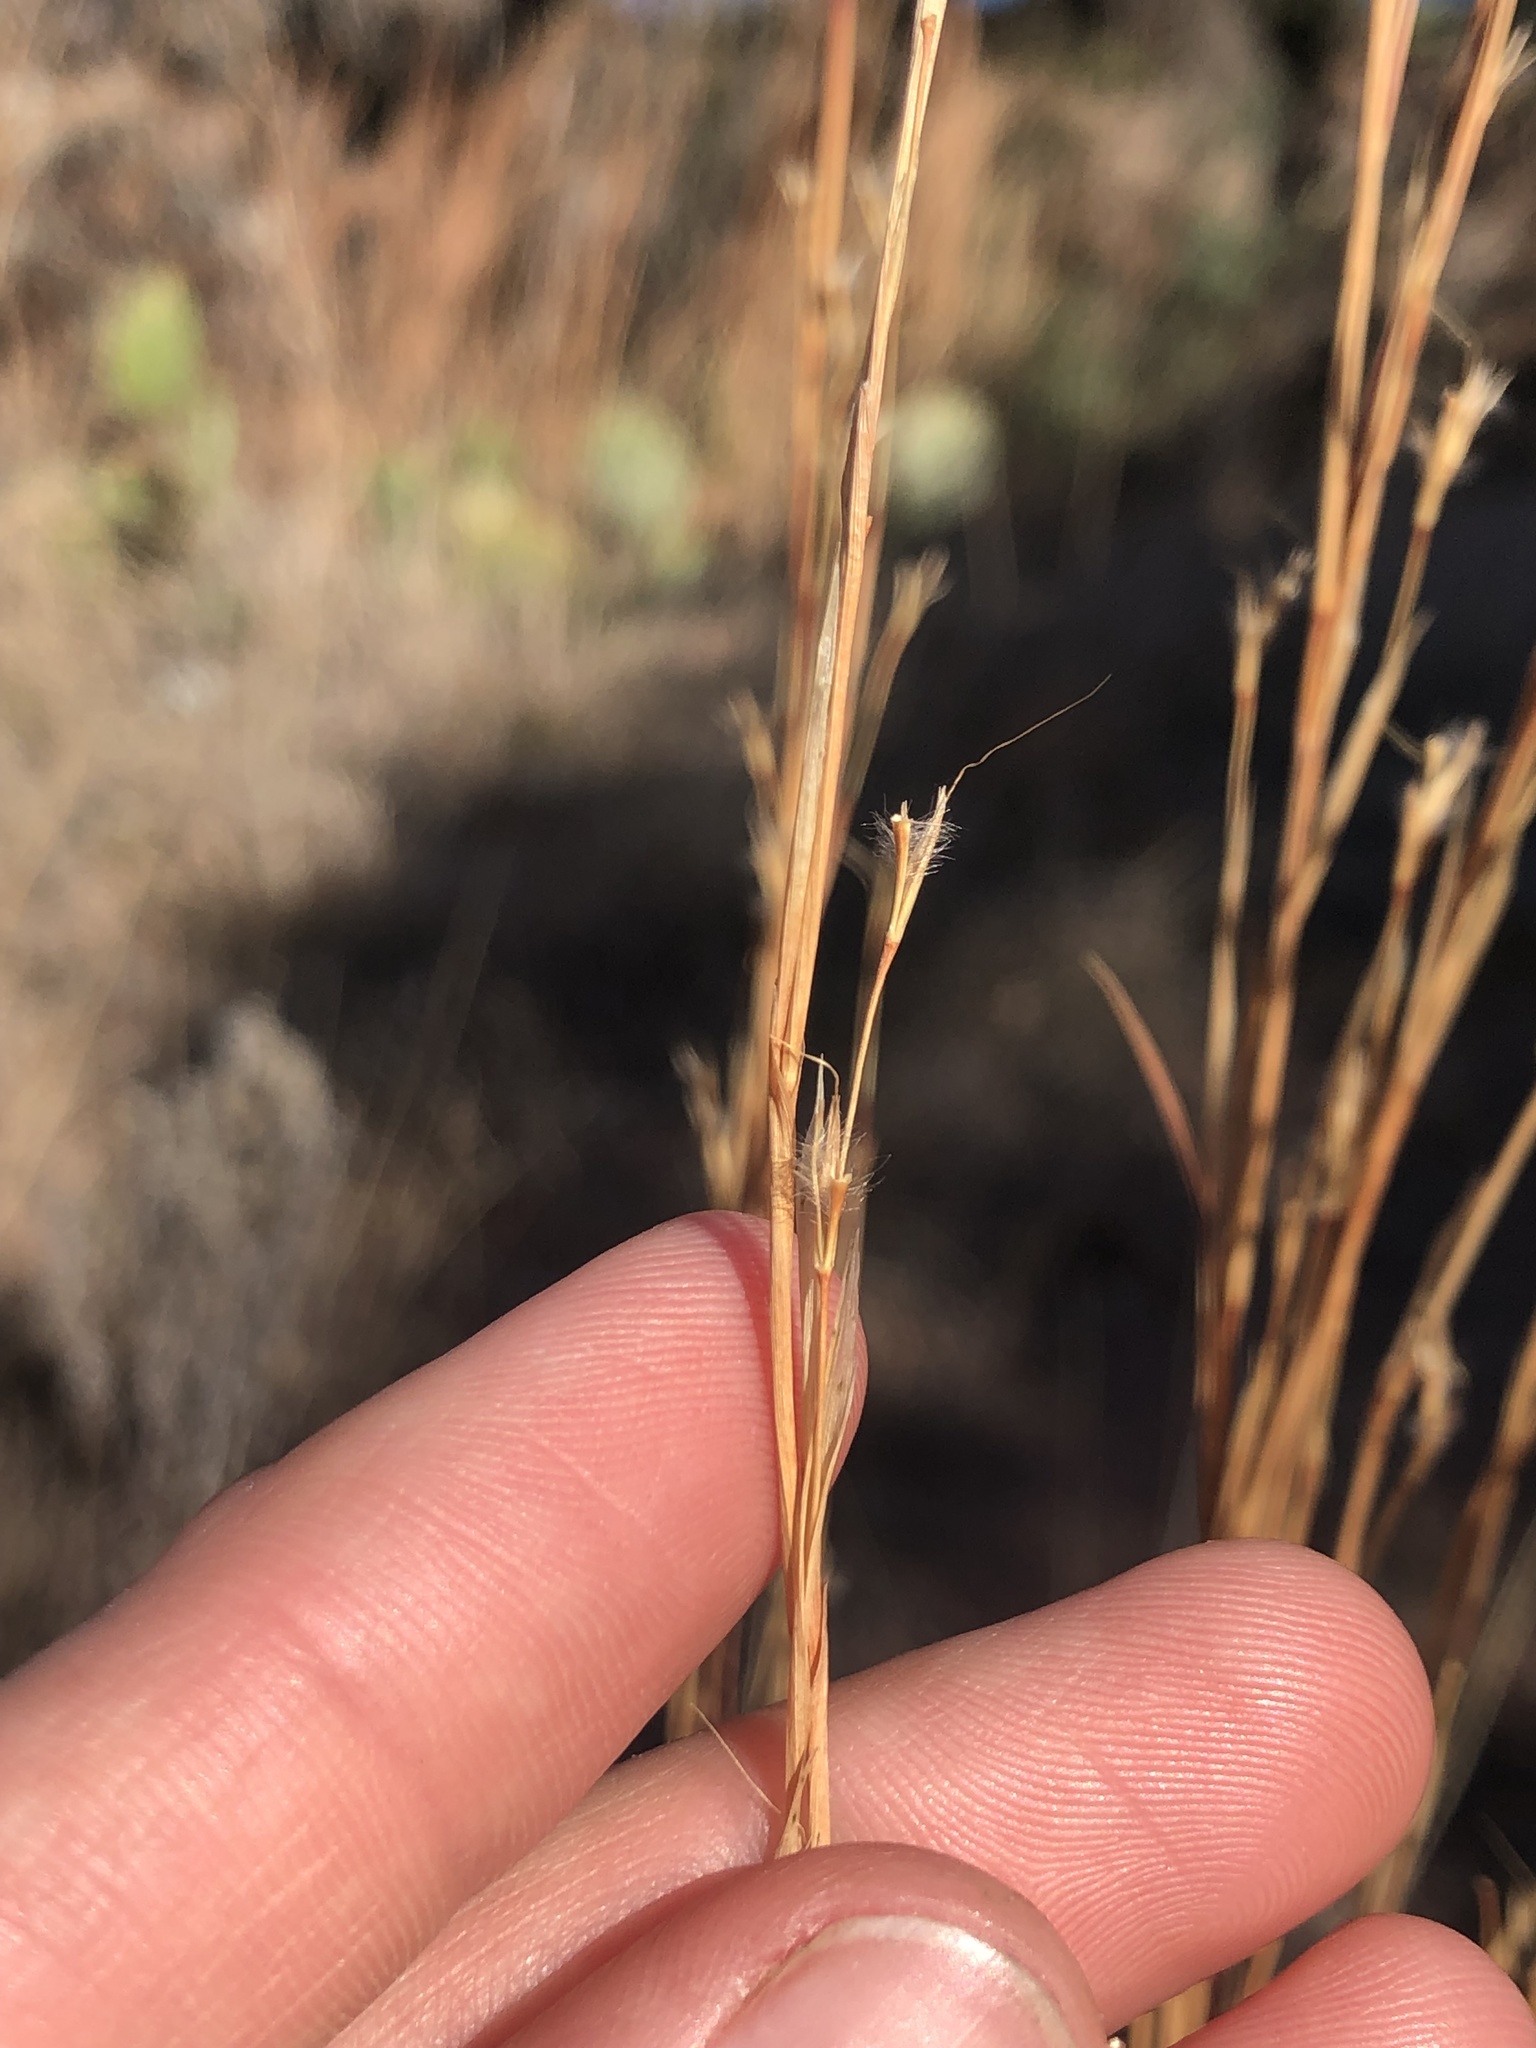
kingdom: Plantae
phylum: Tracheophyta
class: Liliopsida
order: Poales
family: Poaceae
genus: Schizachyrium
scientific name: Schizachyrium scoparium
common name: Little bluestem
